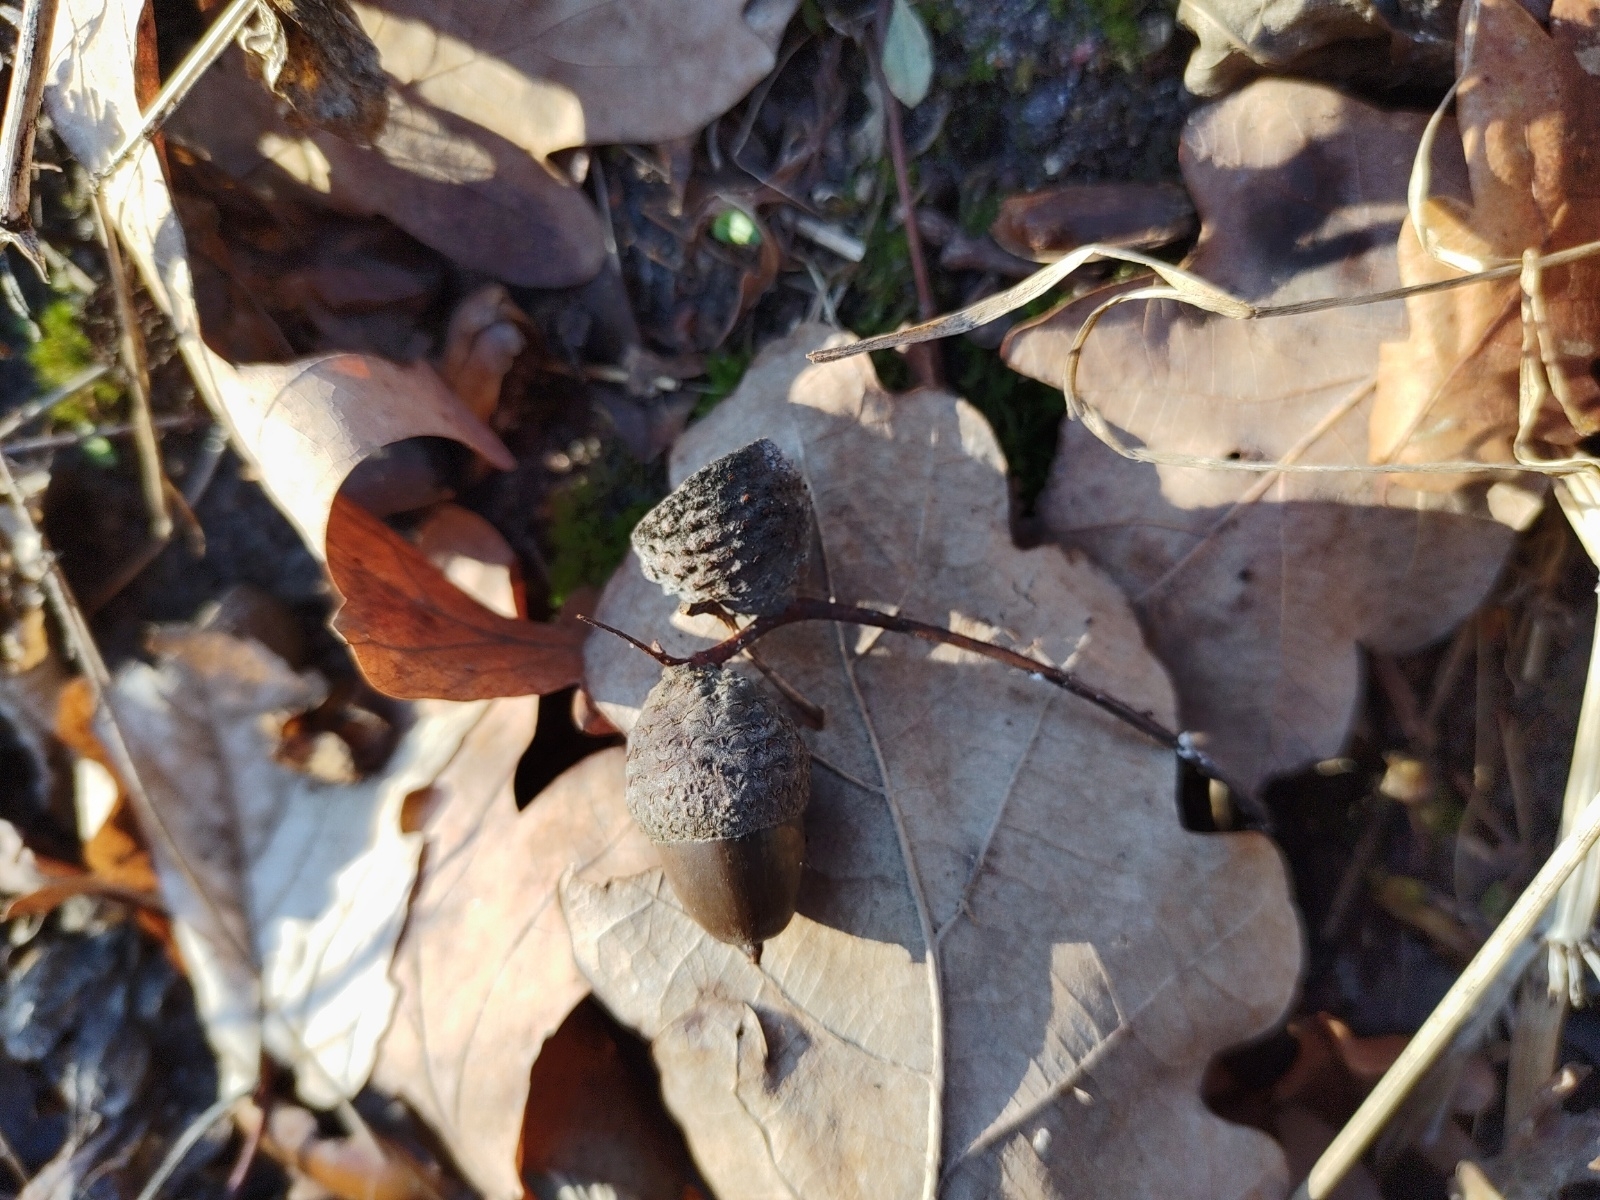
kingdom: Plantae
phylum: Tracheophyta
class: Magnoliopsida
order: Fagales
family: Fagaceae
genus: Quercus
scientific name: Quercus robur
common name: Pedunculate oak
